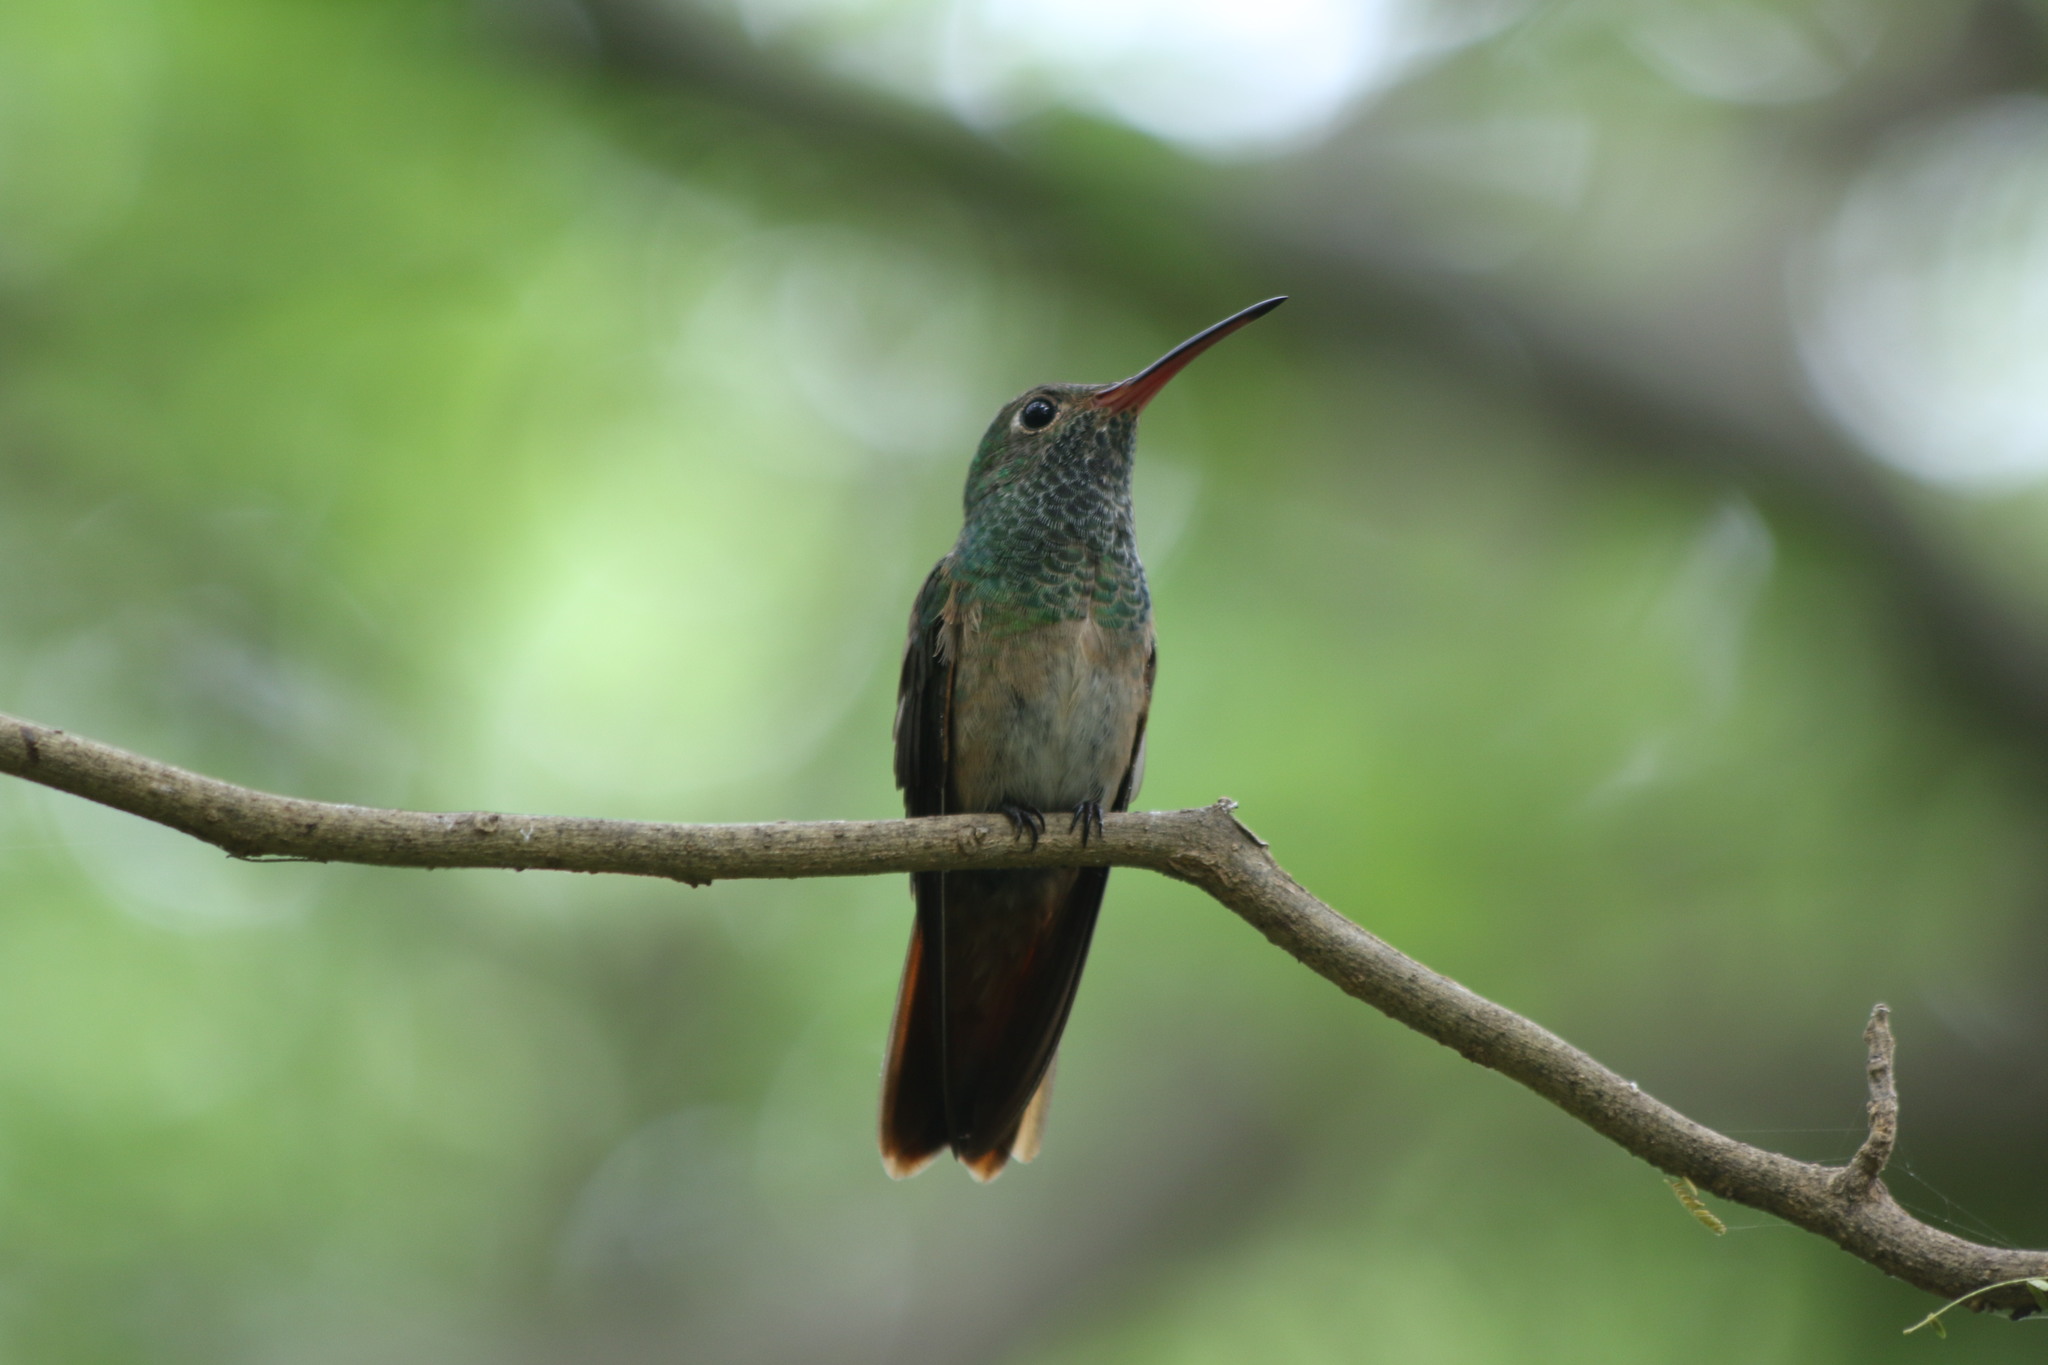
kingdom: Animalia
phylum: Chordata
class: Aves
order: Apodiformes
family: Trochilidae
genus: Amazilia
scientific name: Amazilia yucatanensis
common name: Buff-bellied hummingbird
